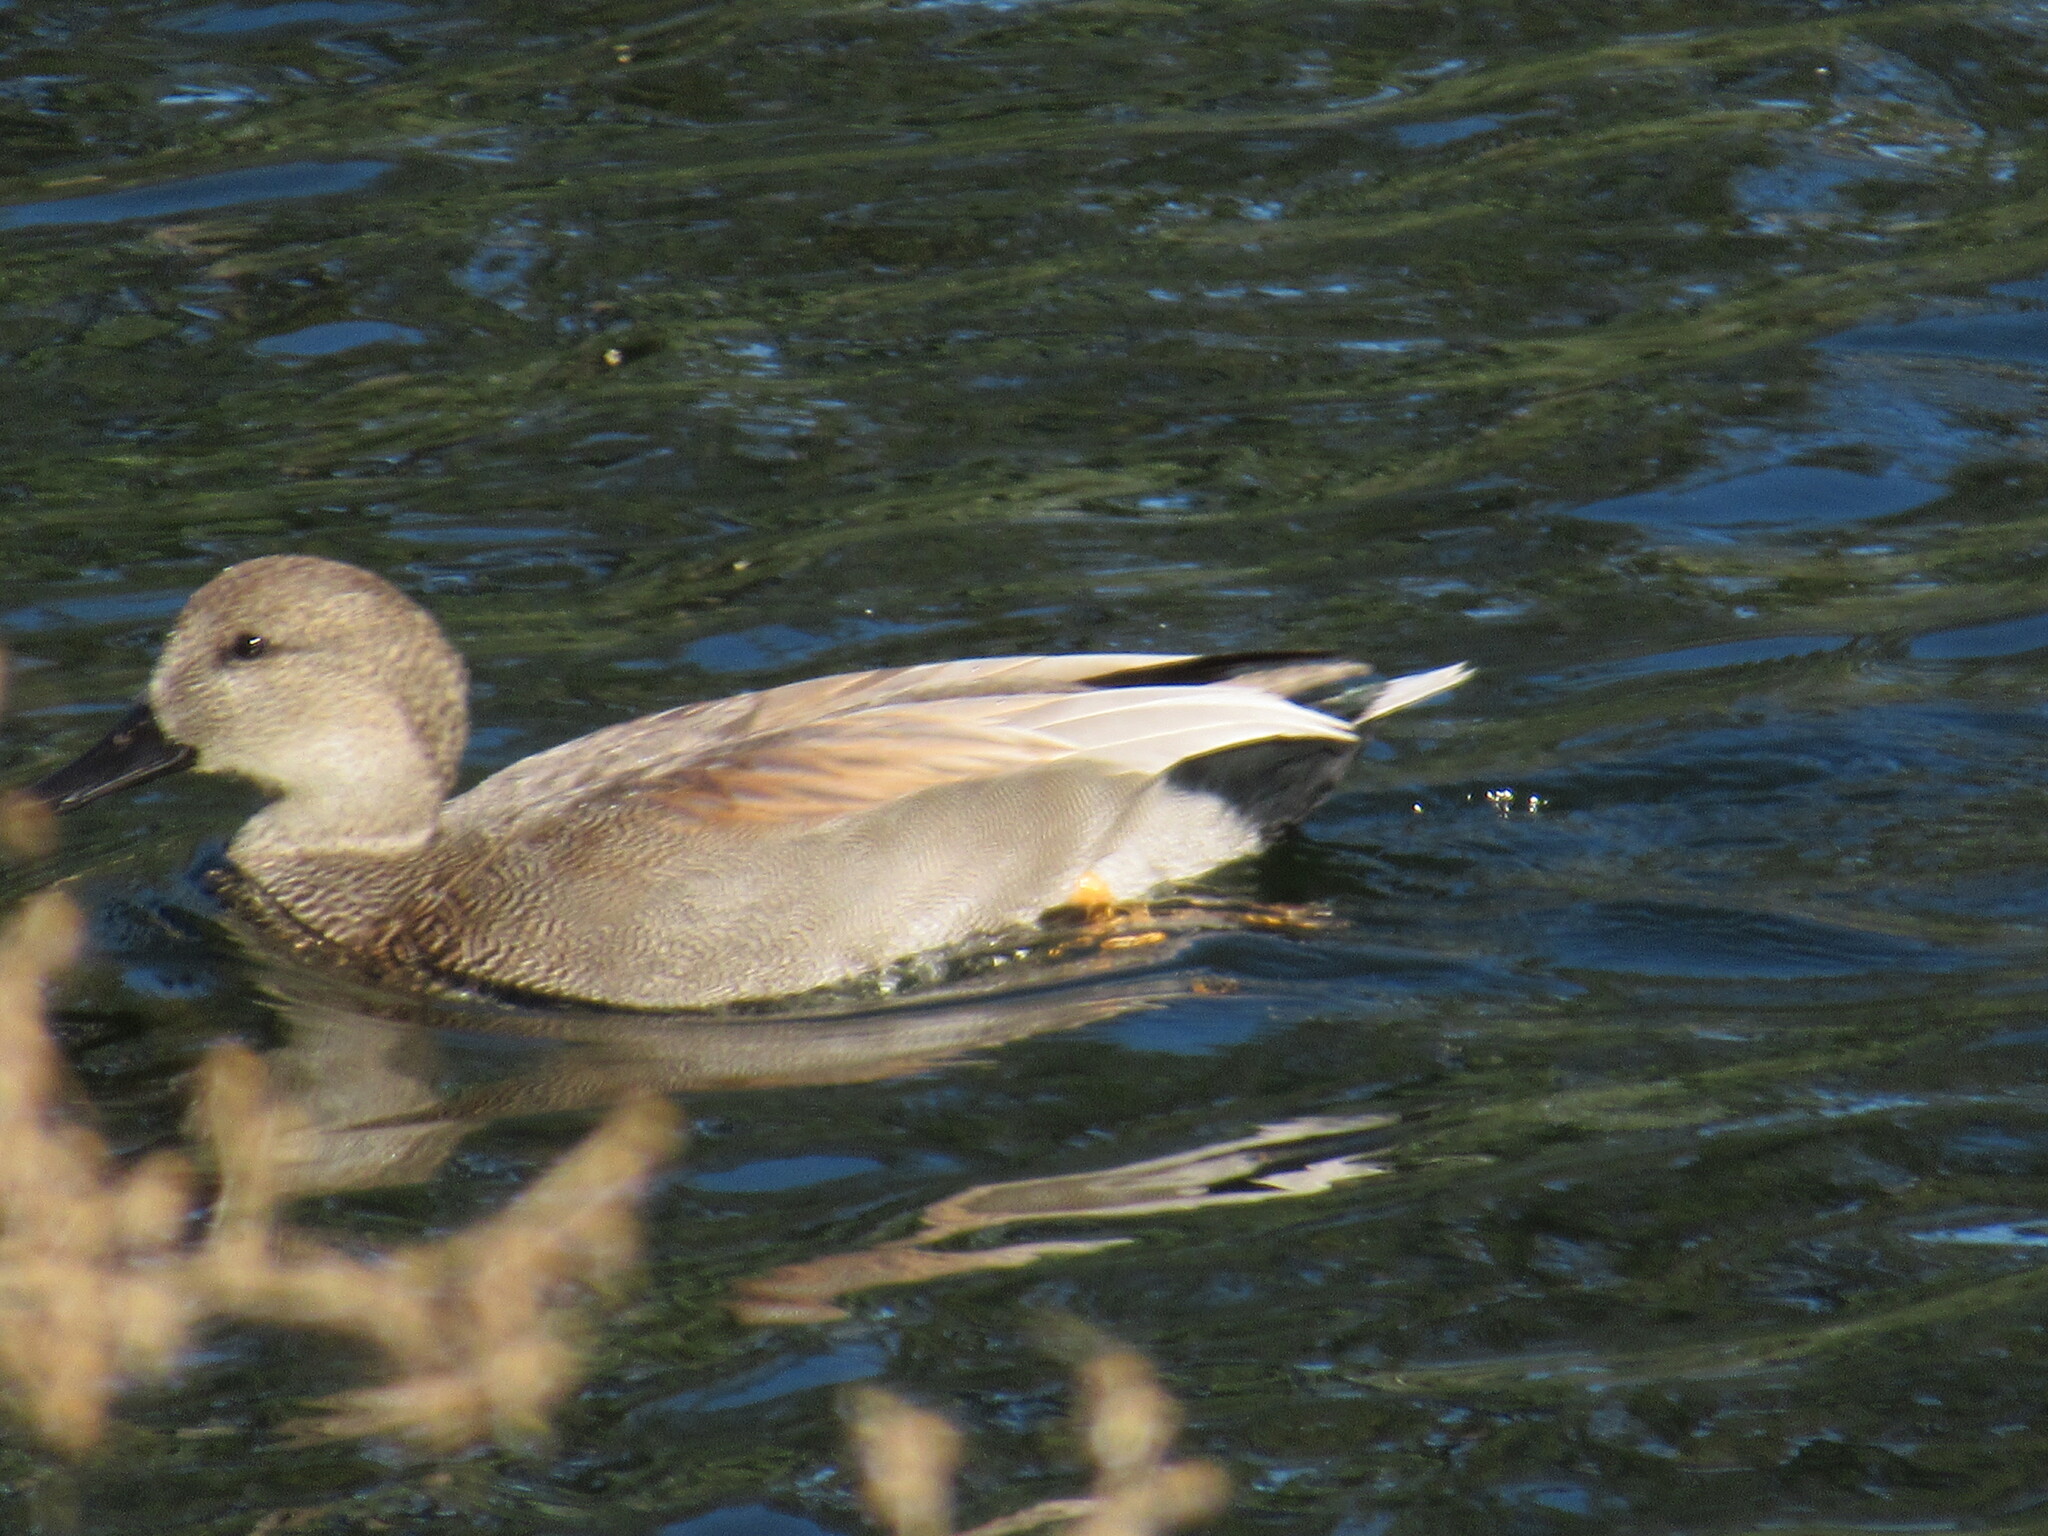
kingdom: Animalia
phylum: Chordata
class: Aves
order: Anseriformes
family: Anatidae
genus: Mareca
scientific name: Mareca strepera
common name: Gadwall
